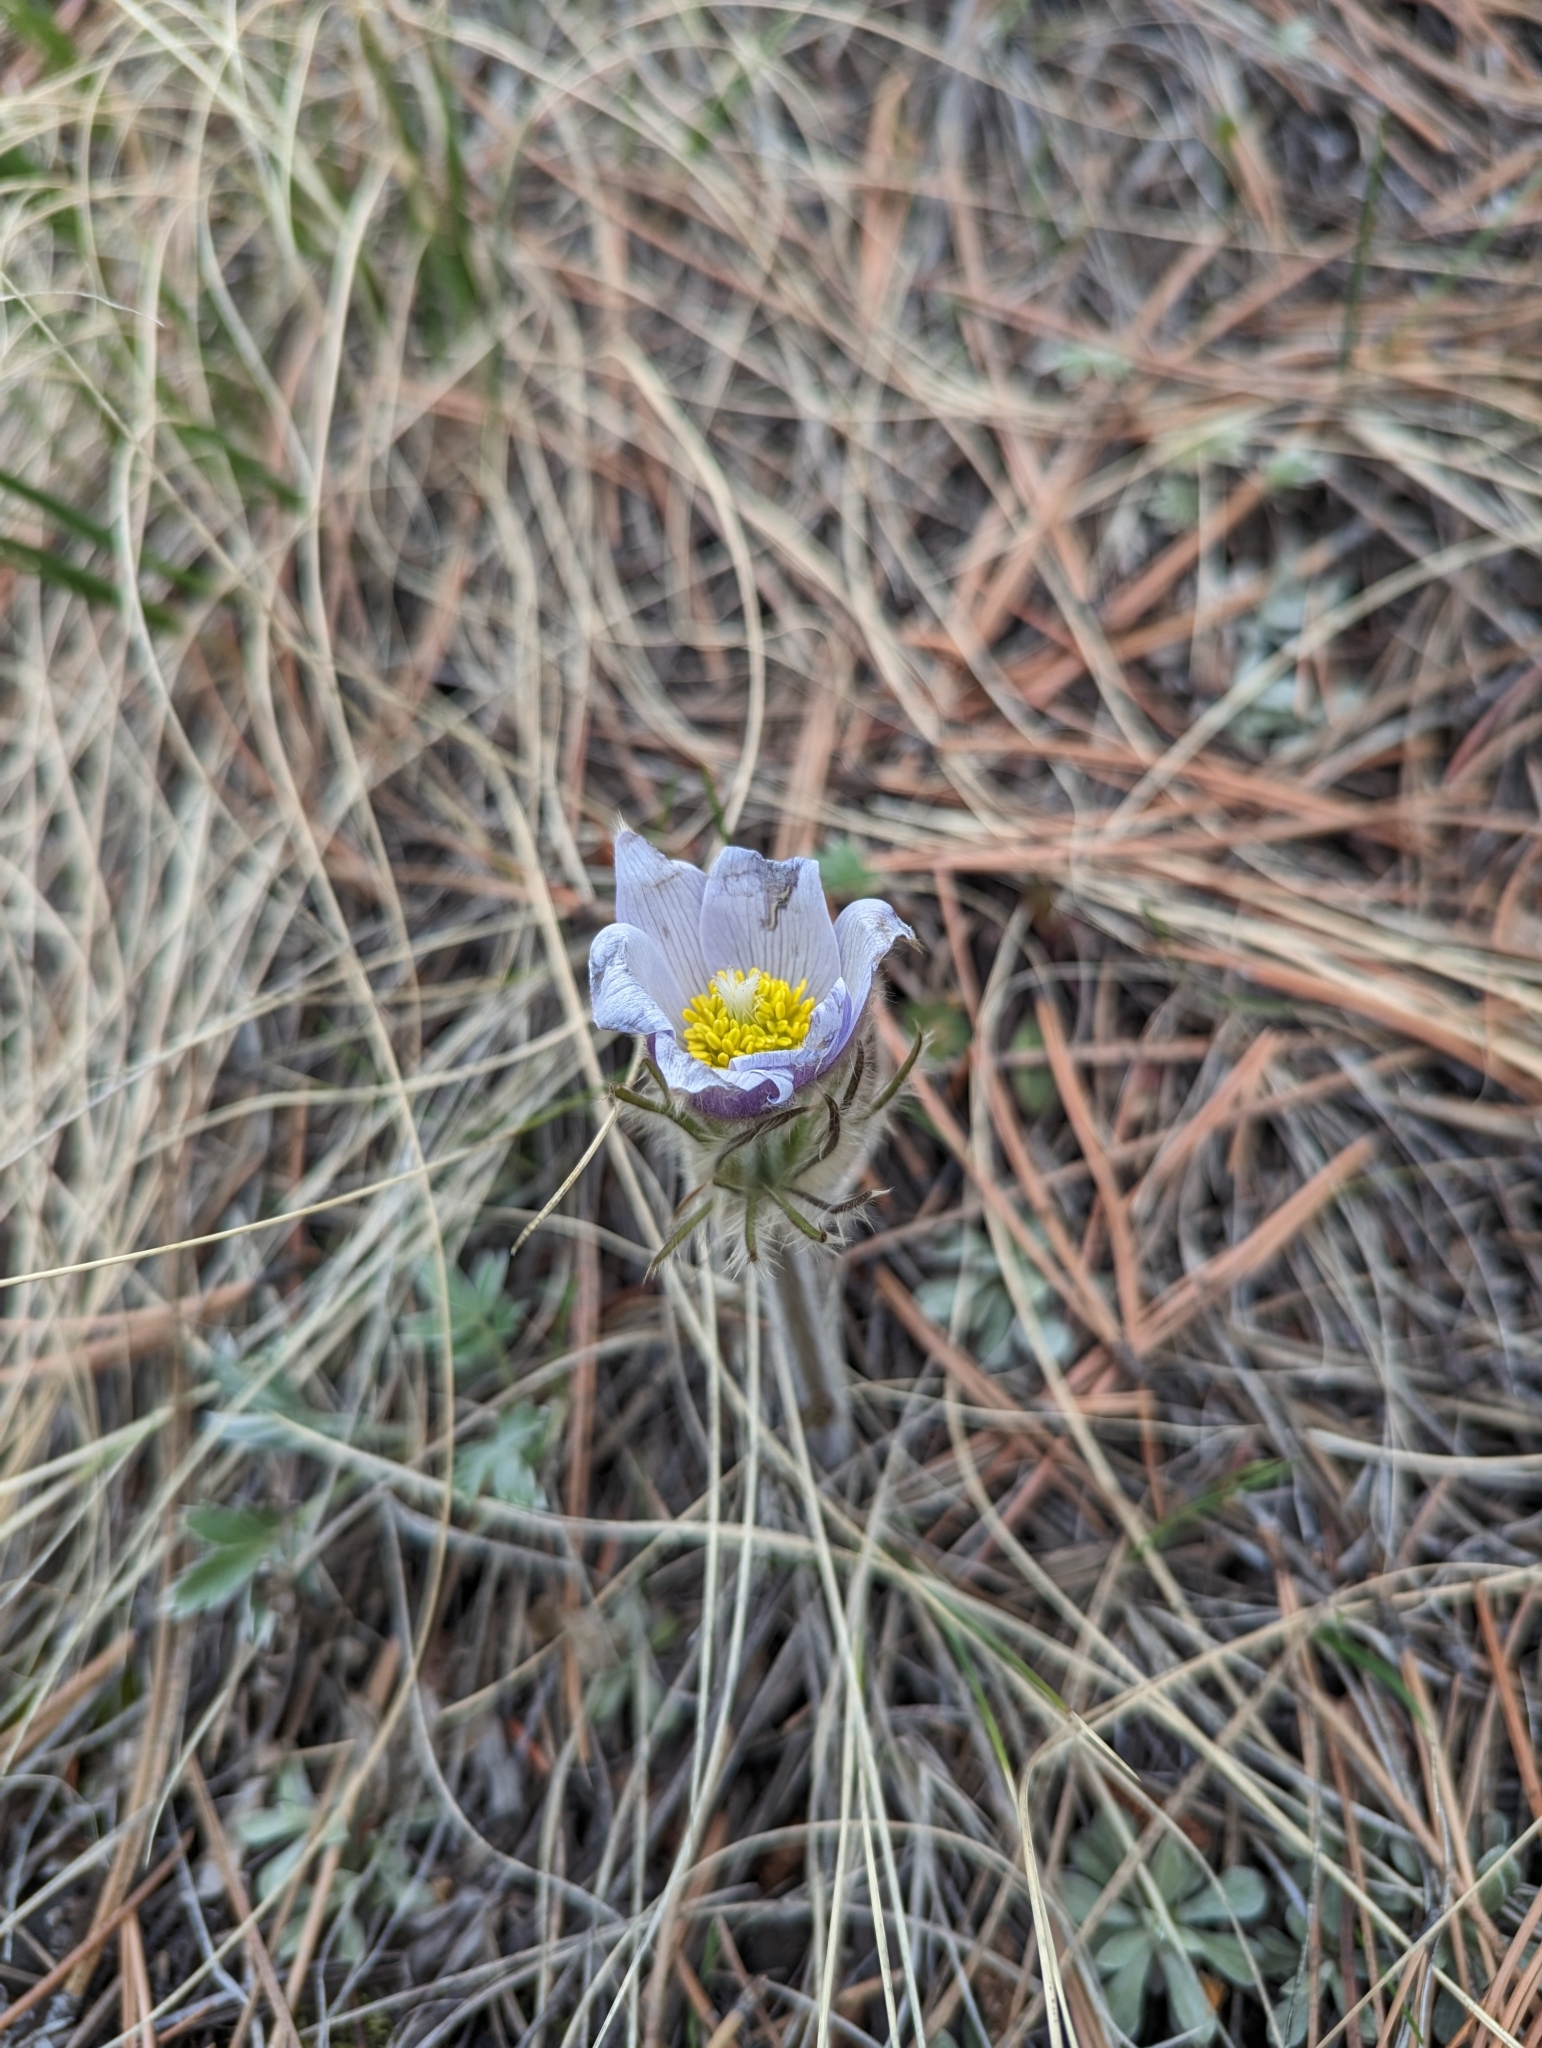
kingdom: Plantae
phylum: Tracheophyta
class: Magnoliopsida
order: Ranunculales
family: Ranunculaceae
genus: Pulsatilla
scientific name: Pulsatilla nuttalliana
